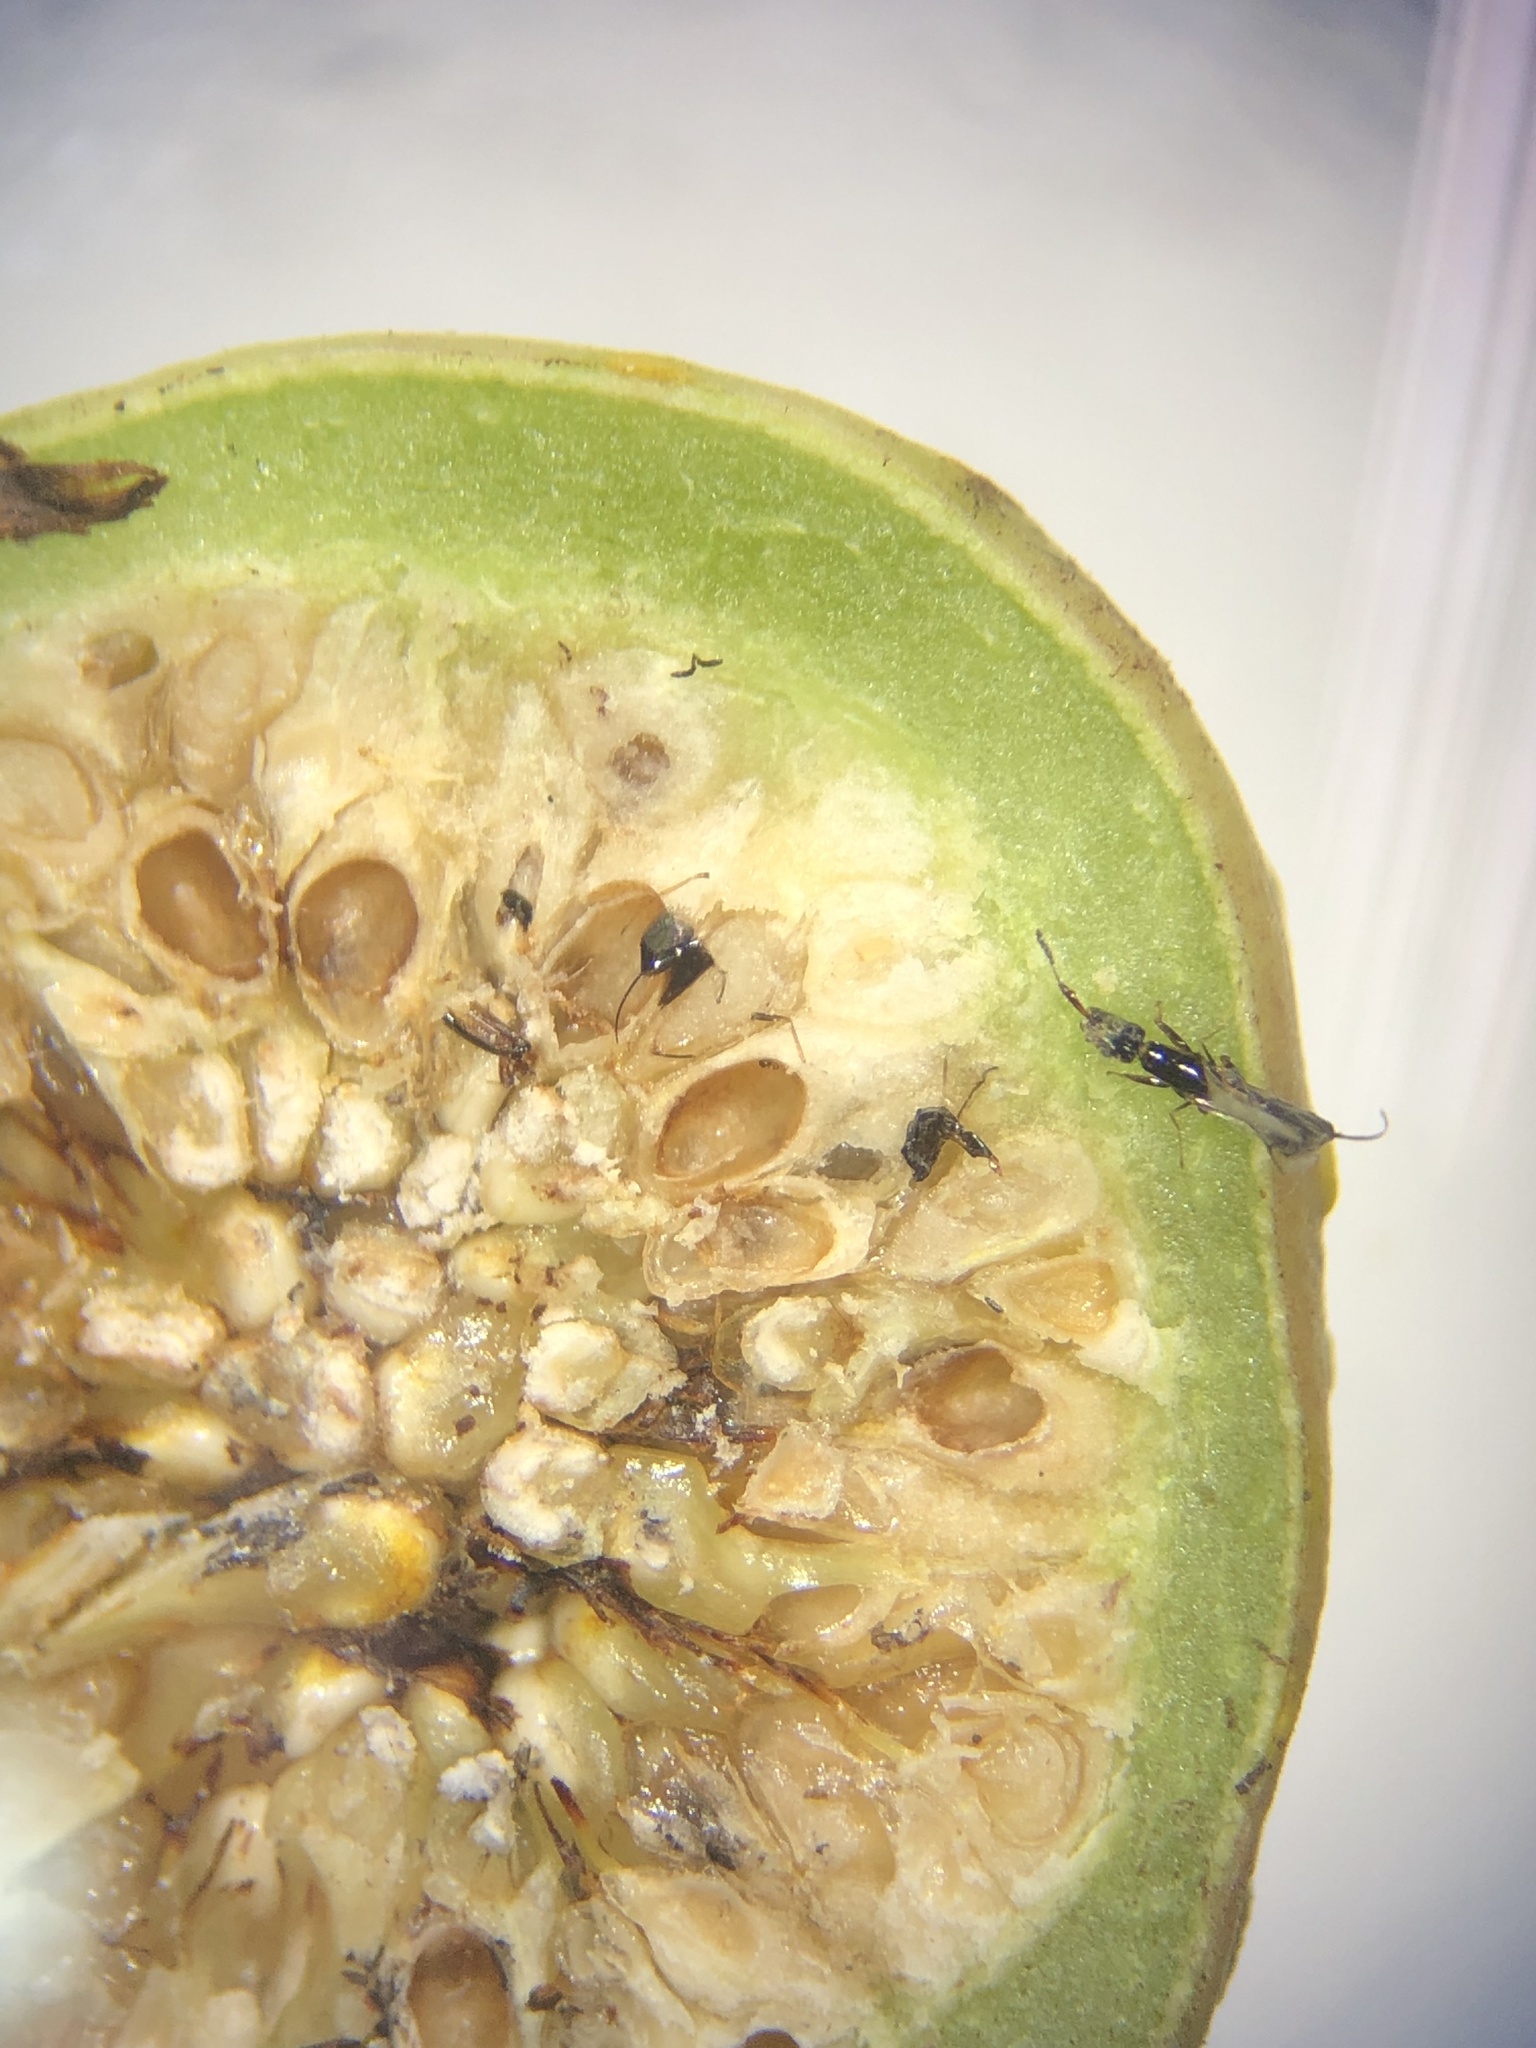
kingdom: Animalia
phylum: Arthropoda
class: Insecta
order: Hymenoptera
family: Agaonidae
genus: Pleistodontes
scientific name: Pleistodontes froggatti
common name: Fig wasp
